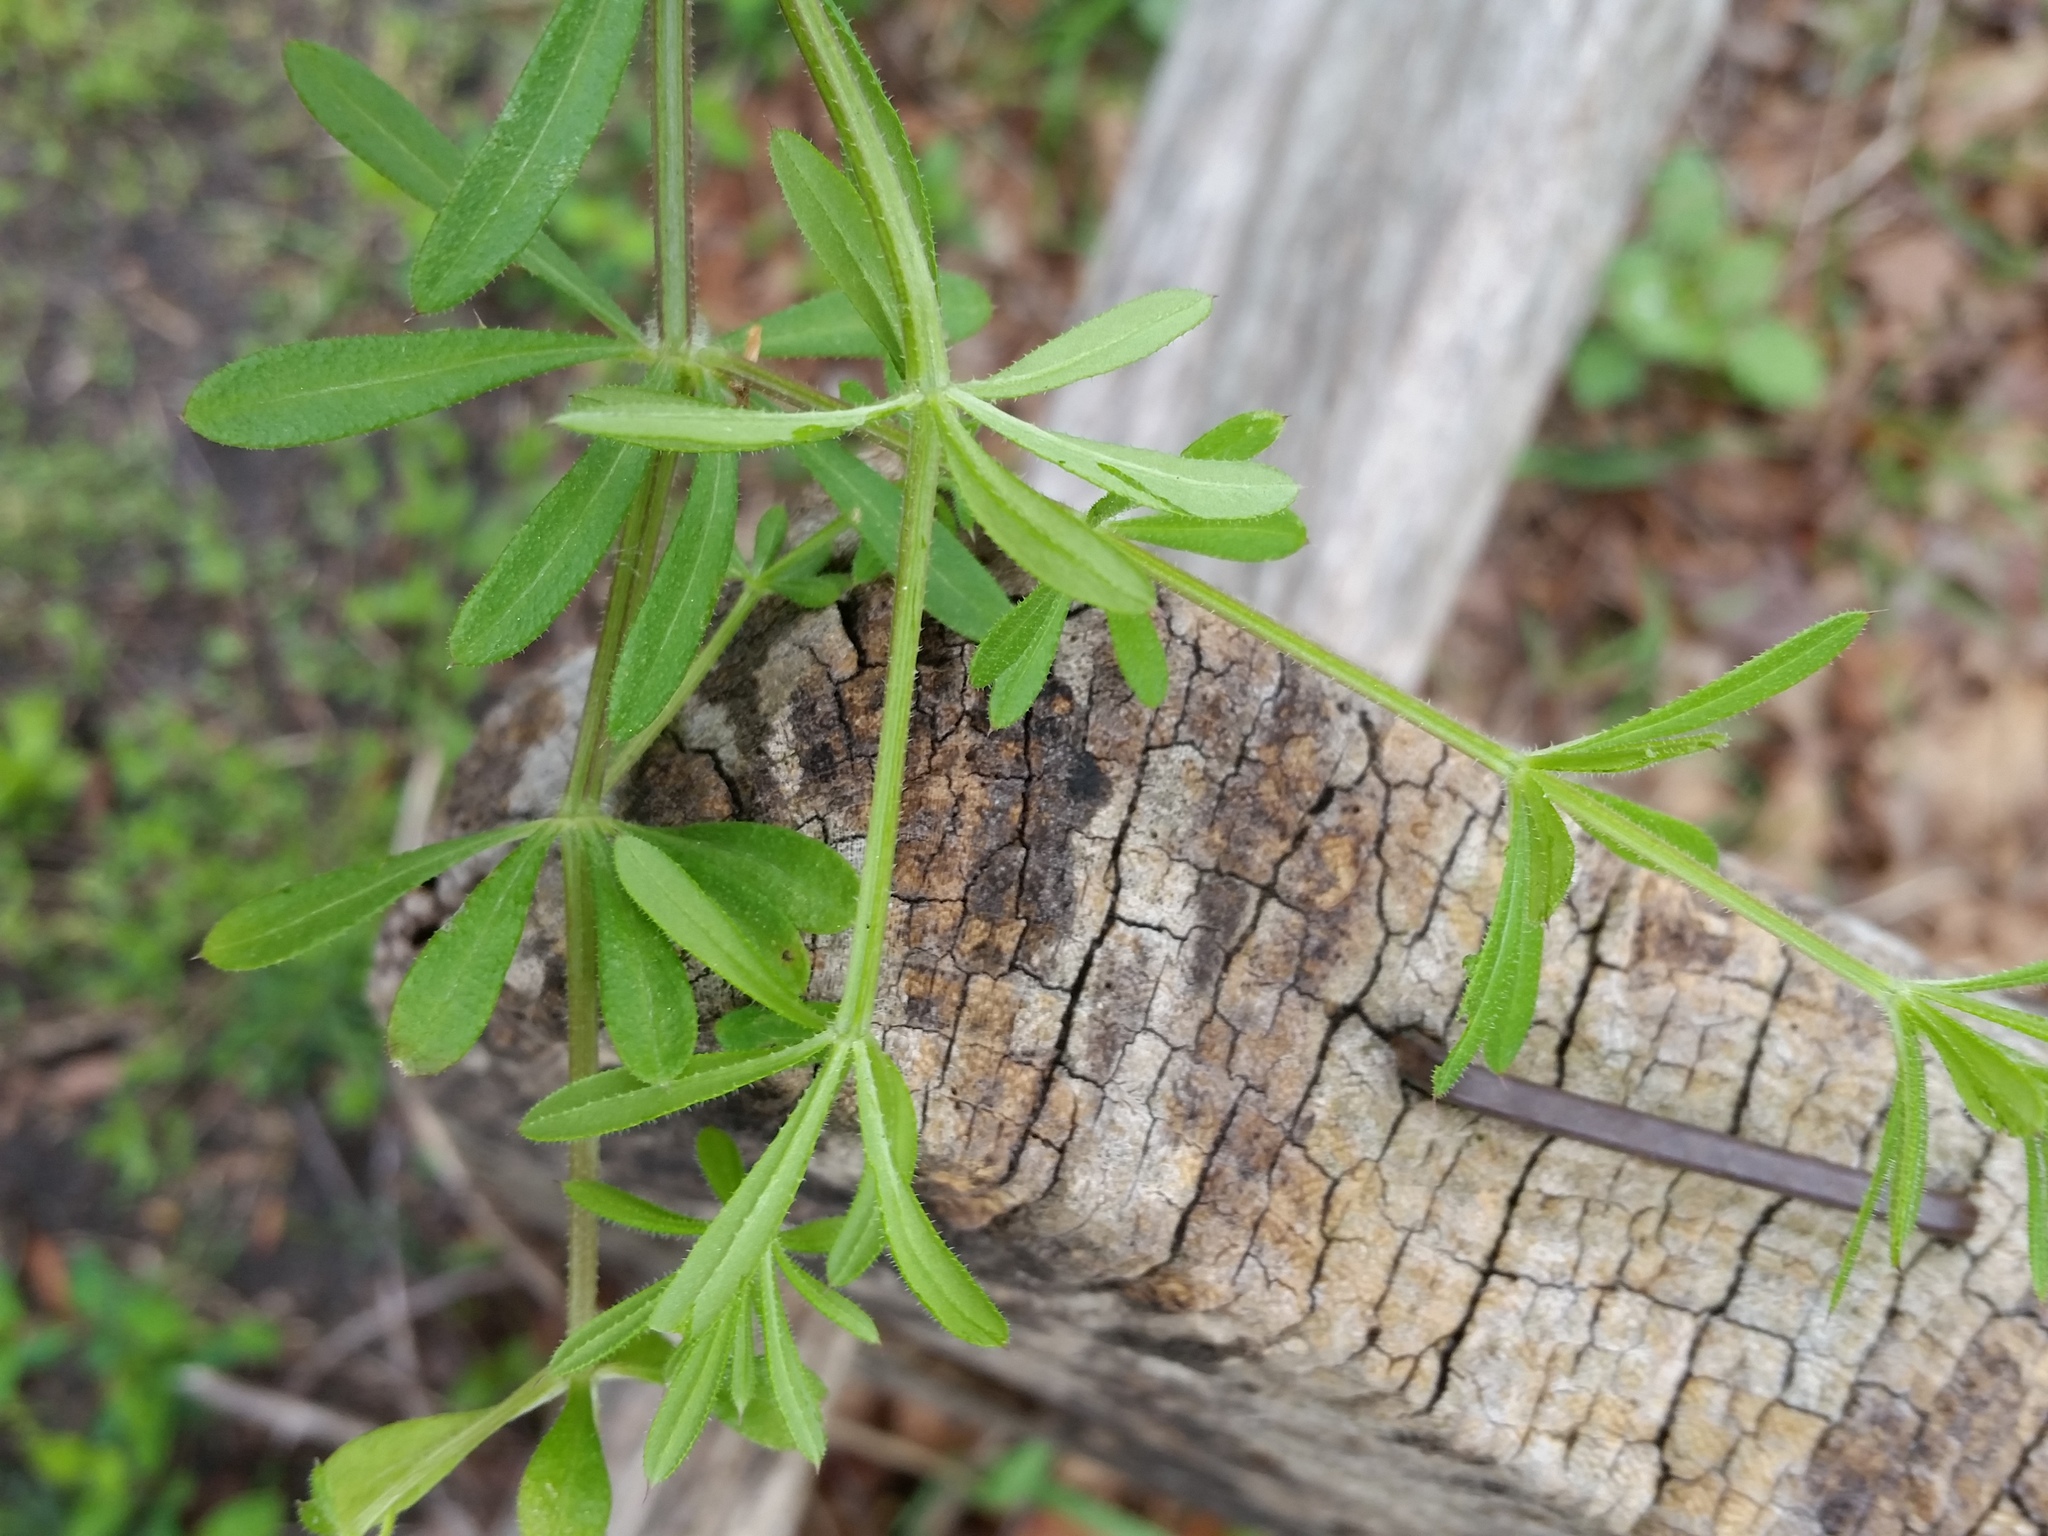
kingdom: Plantae
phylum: Tracheophyta
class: Magnoliopsida
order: Gentianales
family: Rubiaceae
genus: Galium
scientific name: Galium aparine
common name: Cleavers
